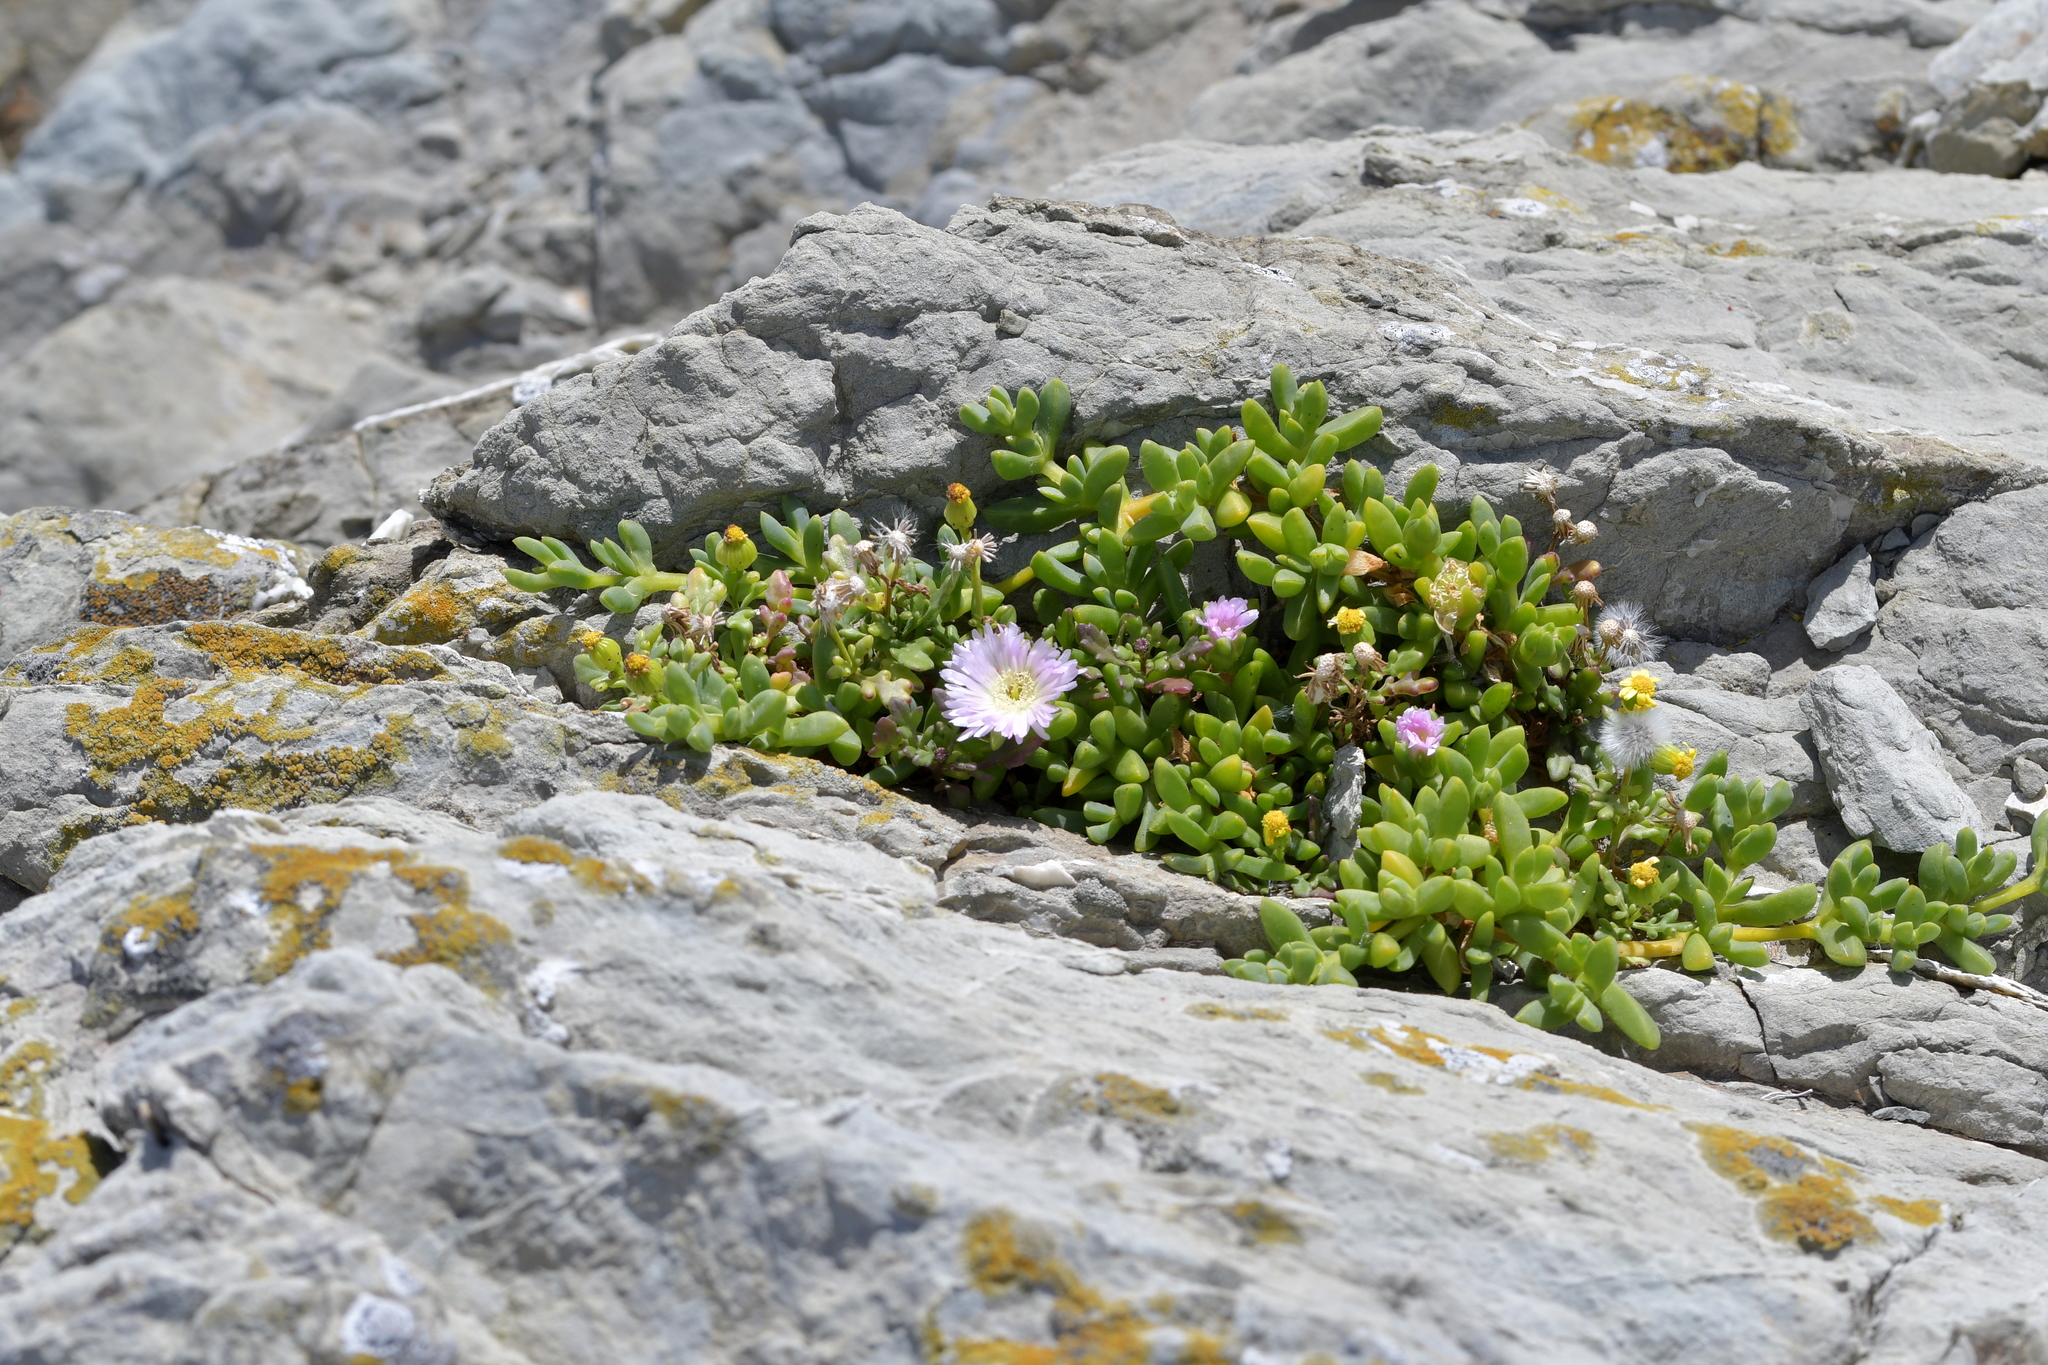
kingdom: Plantae
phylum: Tracheophyta
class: Magnoliopsida
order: Caryophyllales
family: Aizoaceae
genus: Disphyma
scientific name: Disphyma australe
